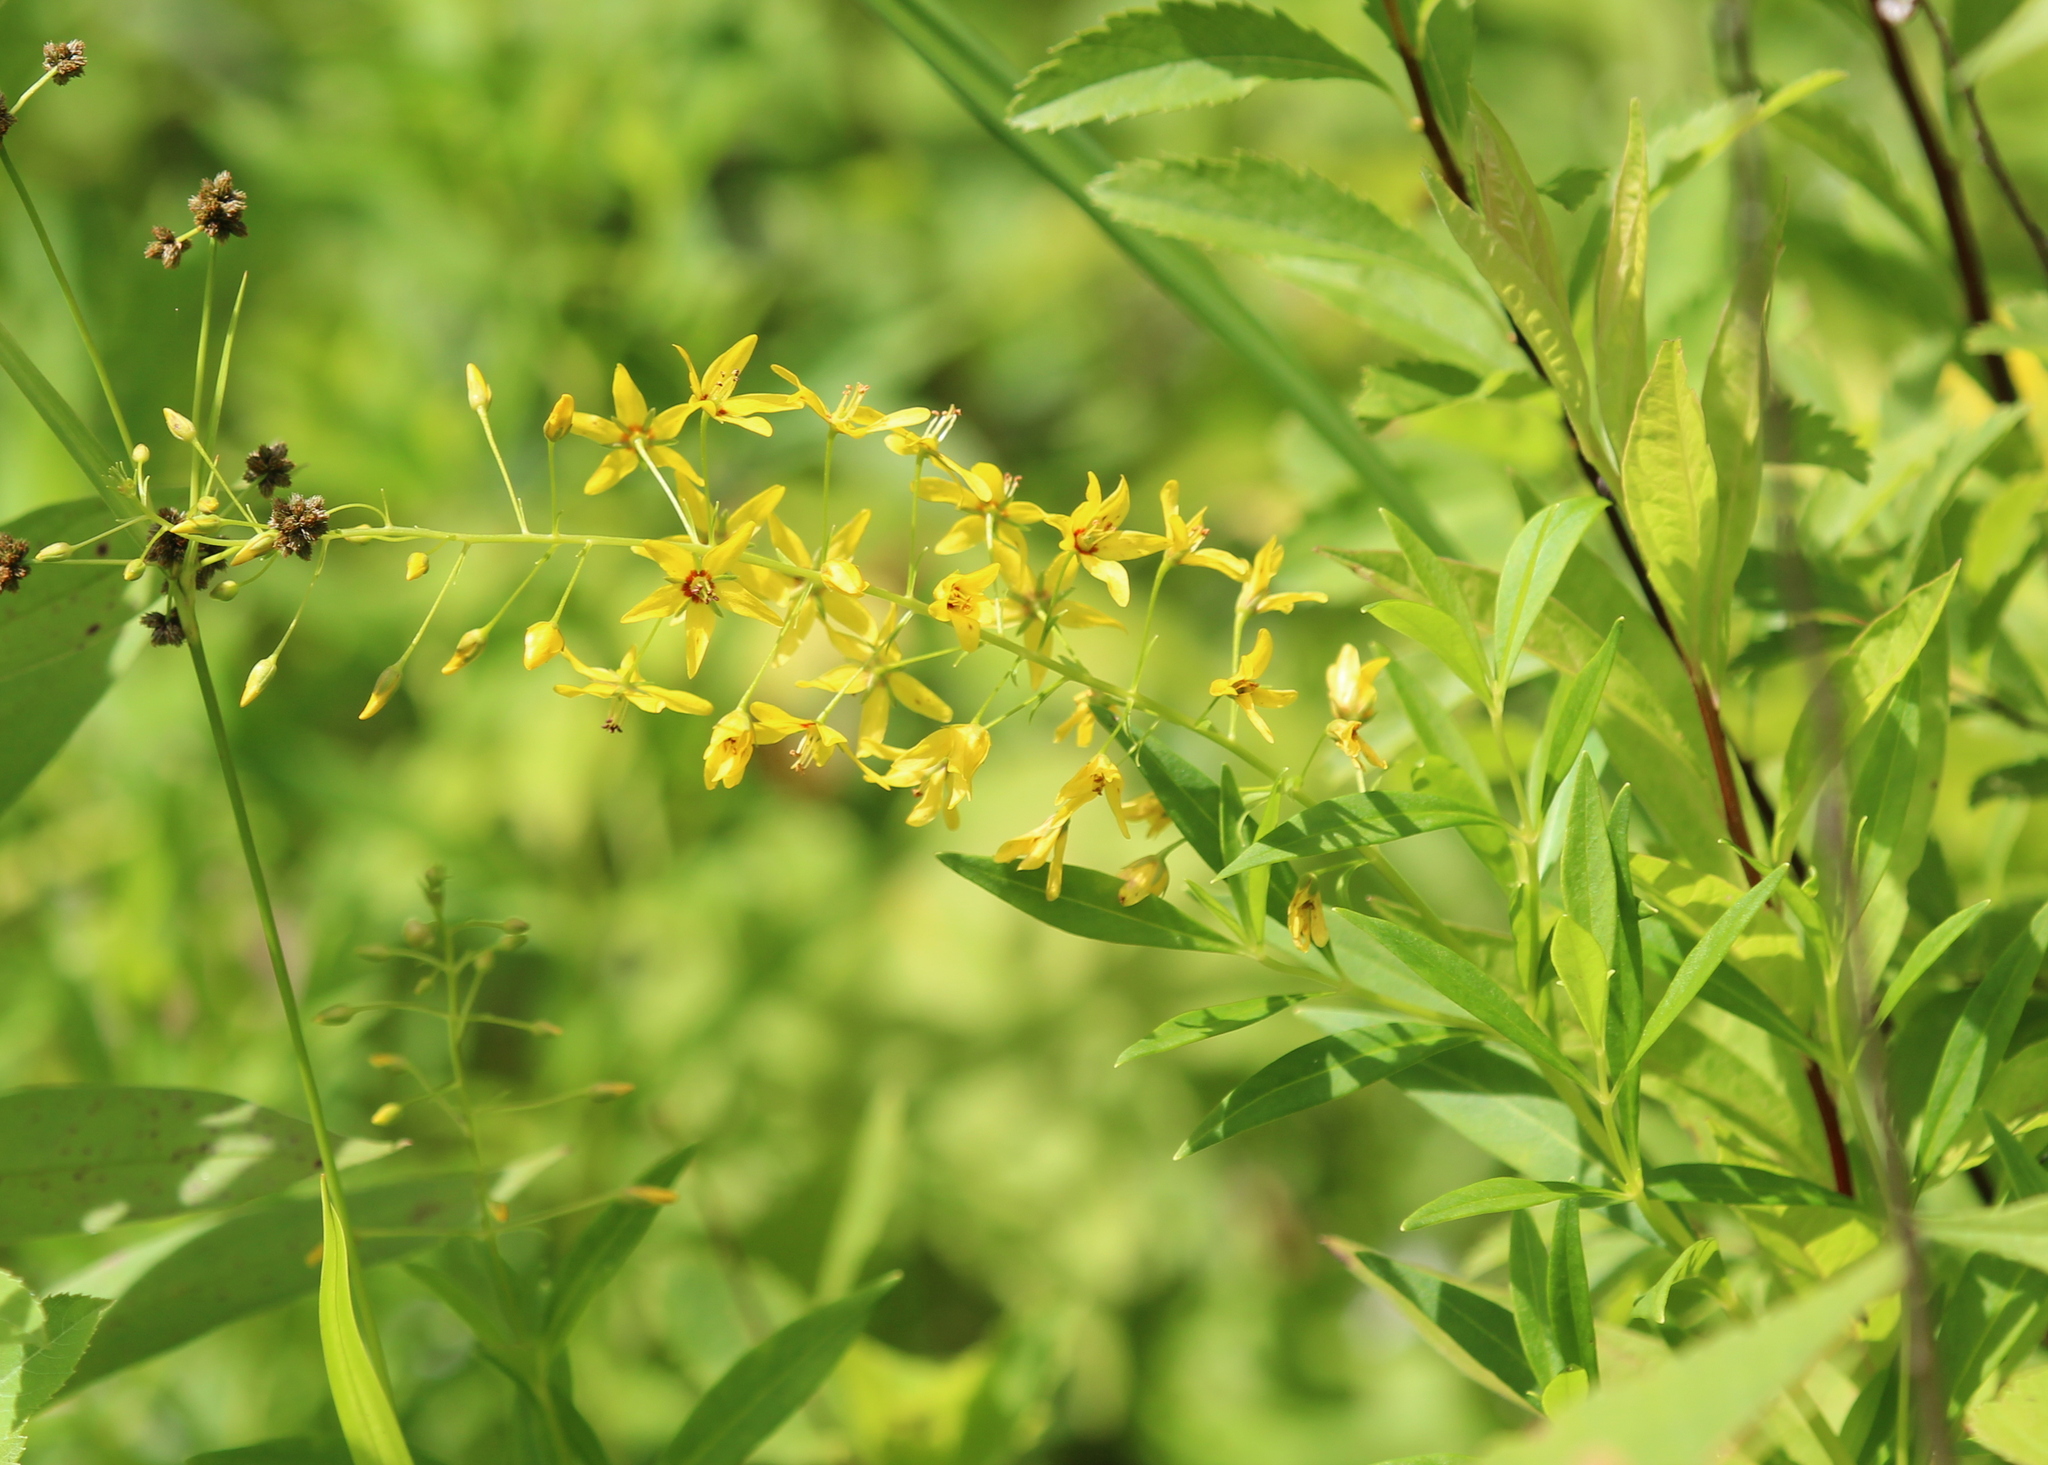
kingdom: Plantae
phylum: Tracheophyta
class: Magnoliopsida
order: Ericales
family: Primulaceae
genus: Lysimachia
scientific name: Lysimachia terrestris
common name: Lake loosestrife
